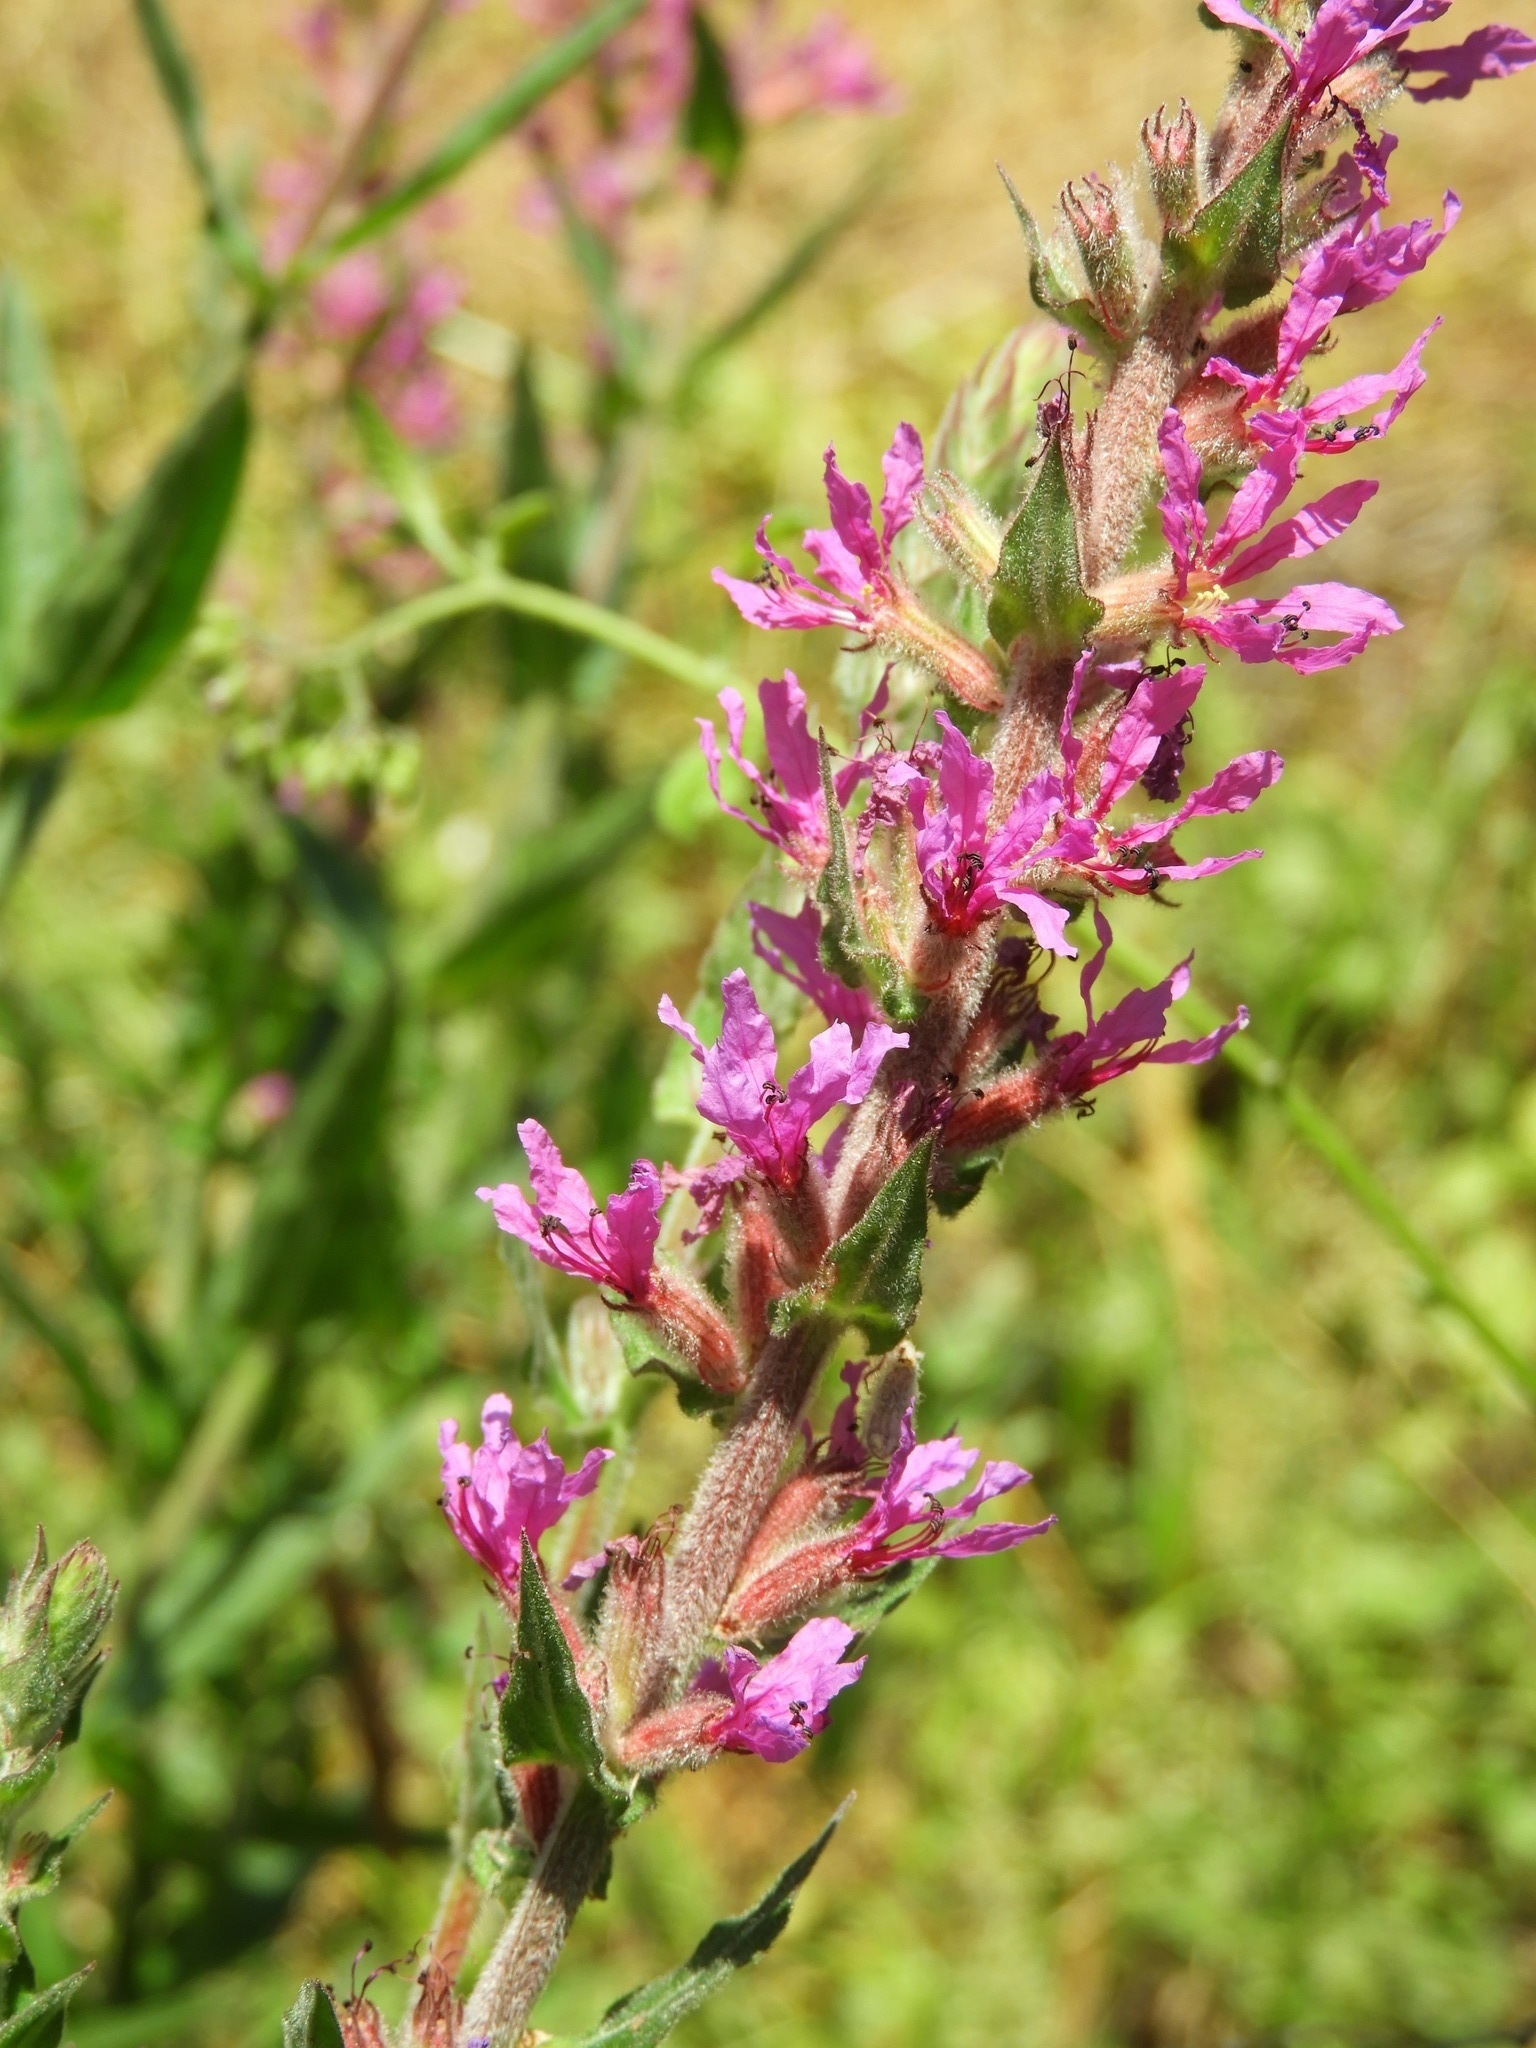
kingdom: Plantae
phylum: Tracheophyta
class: Magnoliopsida
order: Myrtales
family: Lythraceae
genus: Lythrum
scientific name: Lythrum salicaria
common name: Purple loosestrife
